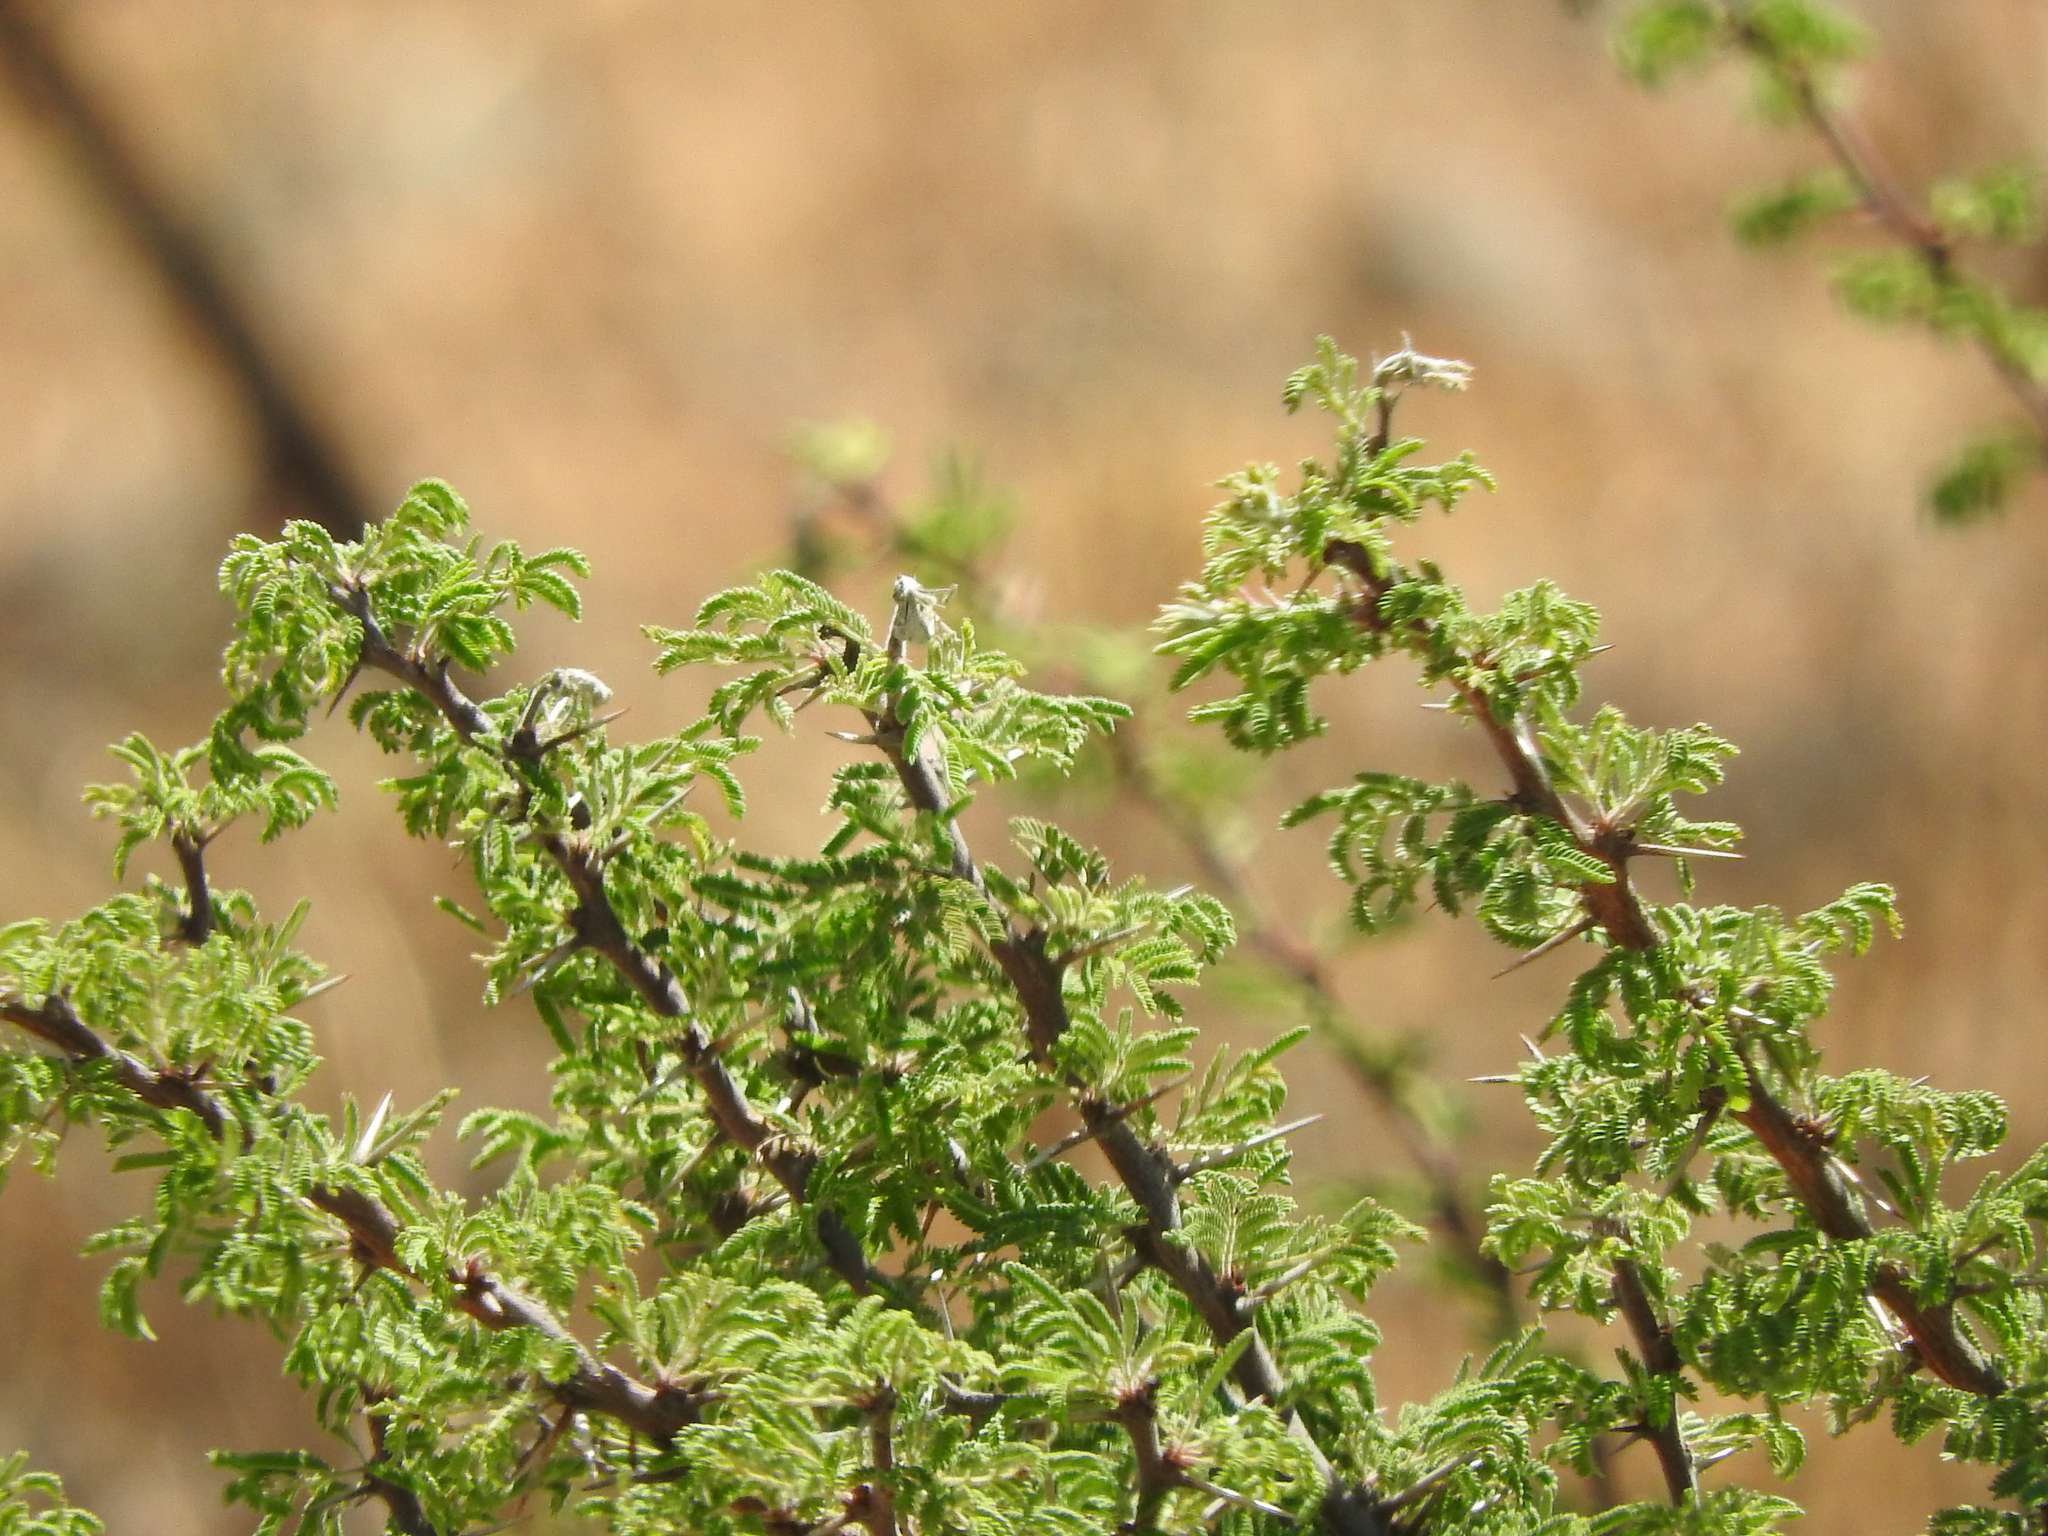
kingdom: Plantae
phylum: Tracheophyta
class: Magnoliopsida
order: Fabales
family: Fabaceae
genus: Vachellia
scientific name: Vachellia schaffneri
